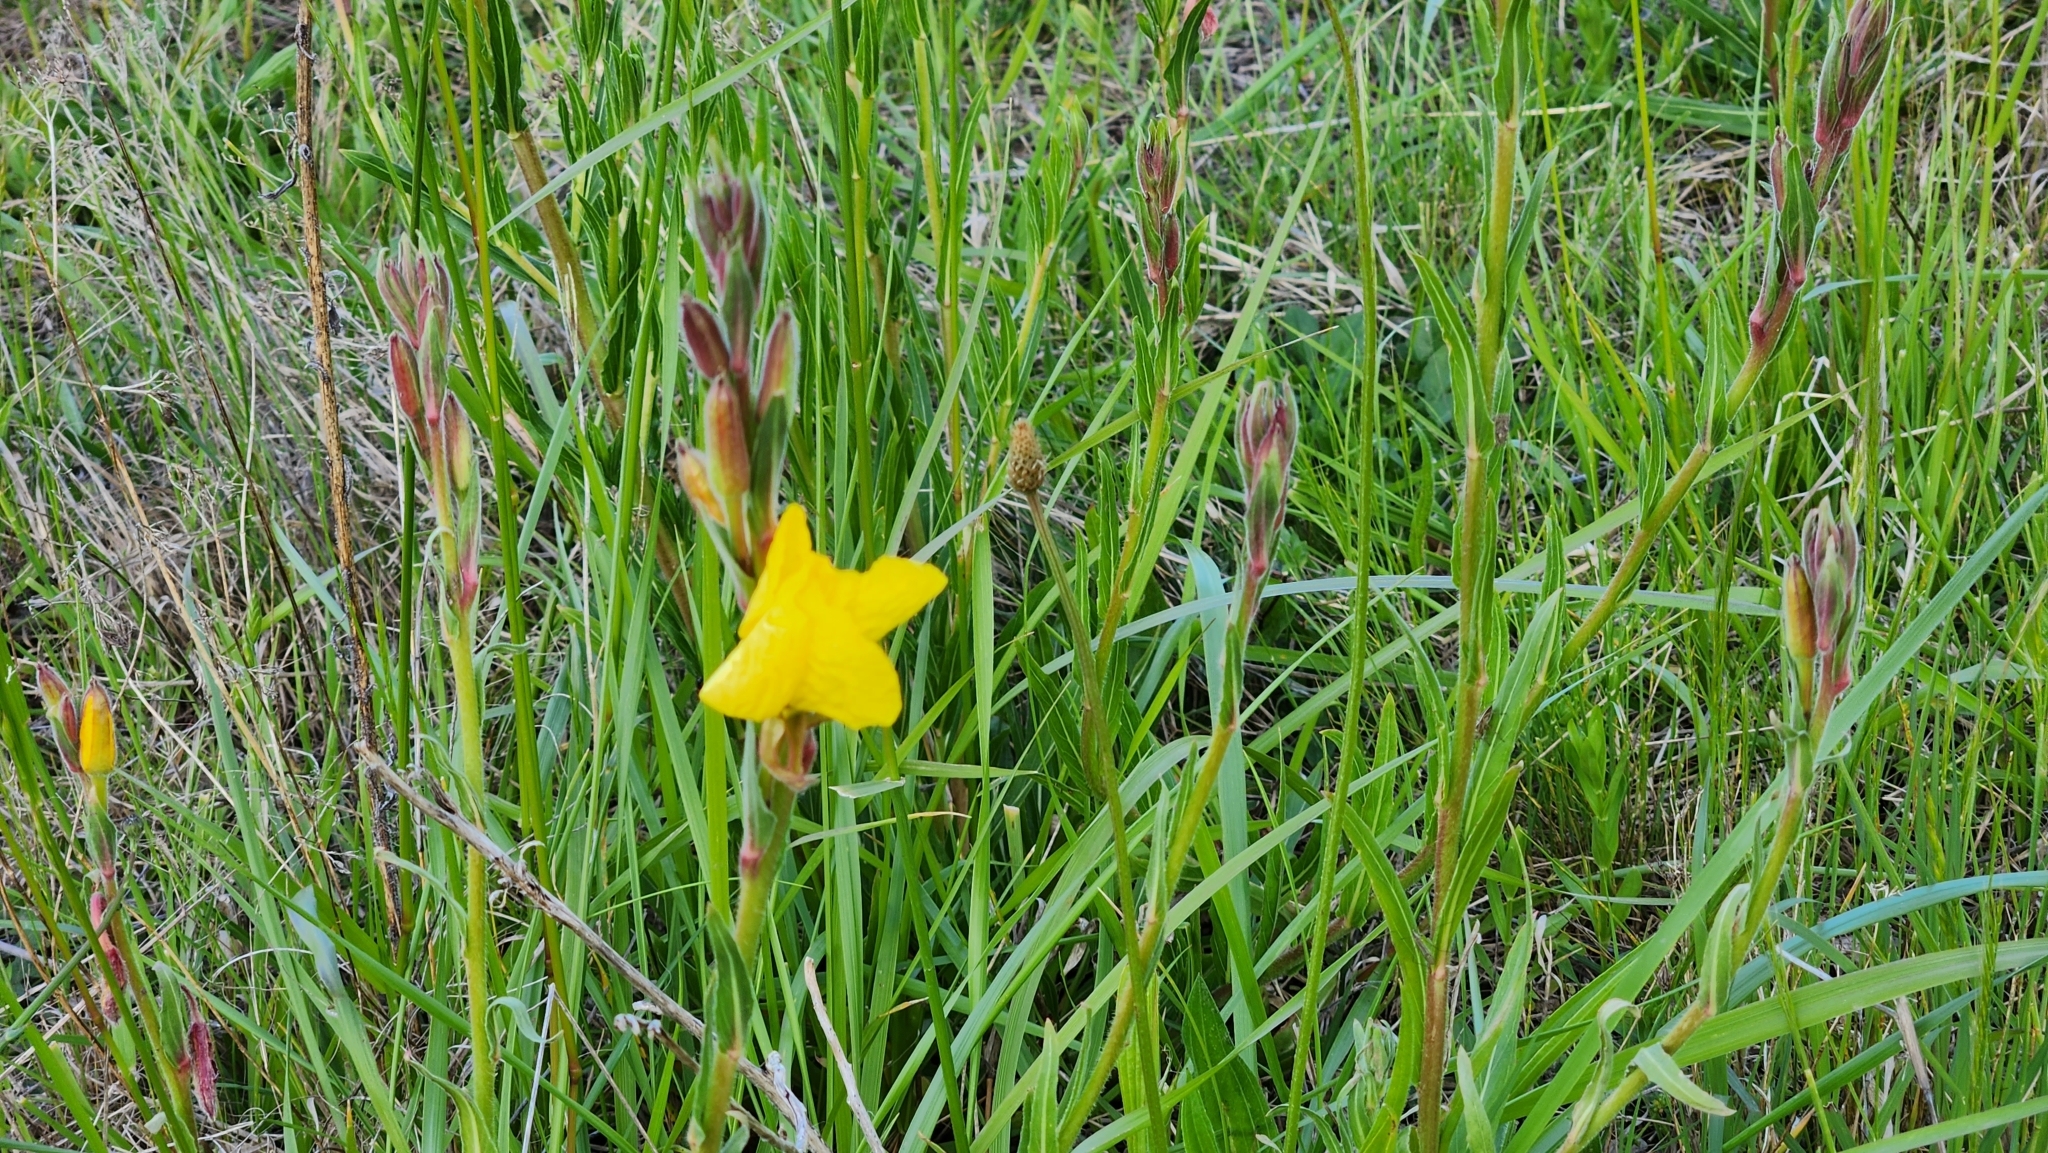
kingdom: Plantae
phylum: Tracheophyta
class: Magnoliopsida
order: Myrtales
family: Onagraceae
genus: Oenothera
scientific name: Oenothera stricta
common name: Fragrant evening-primrose
